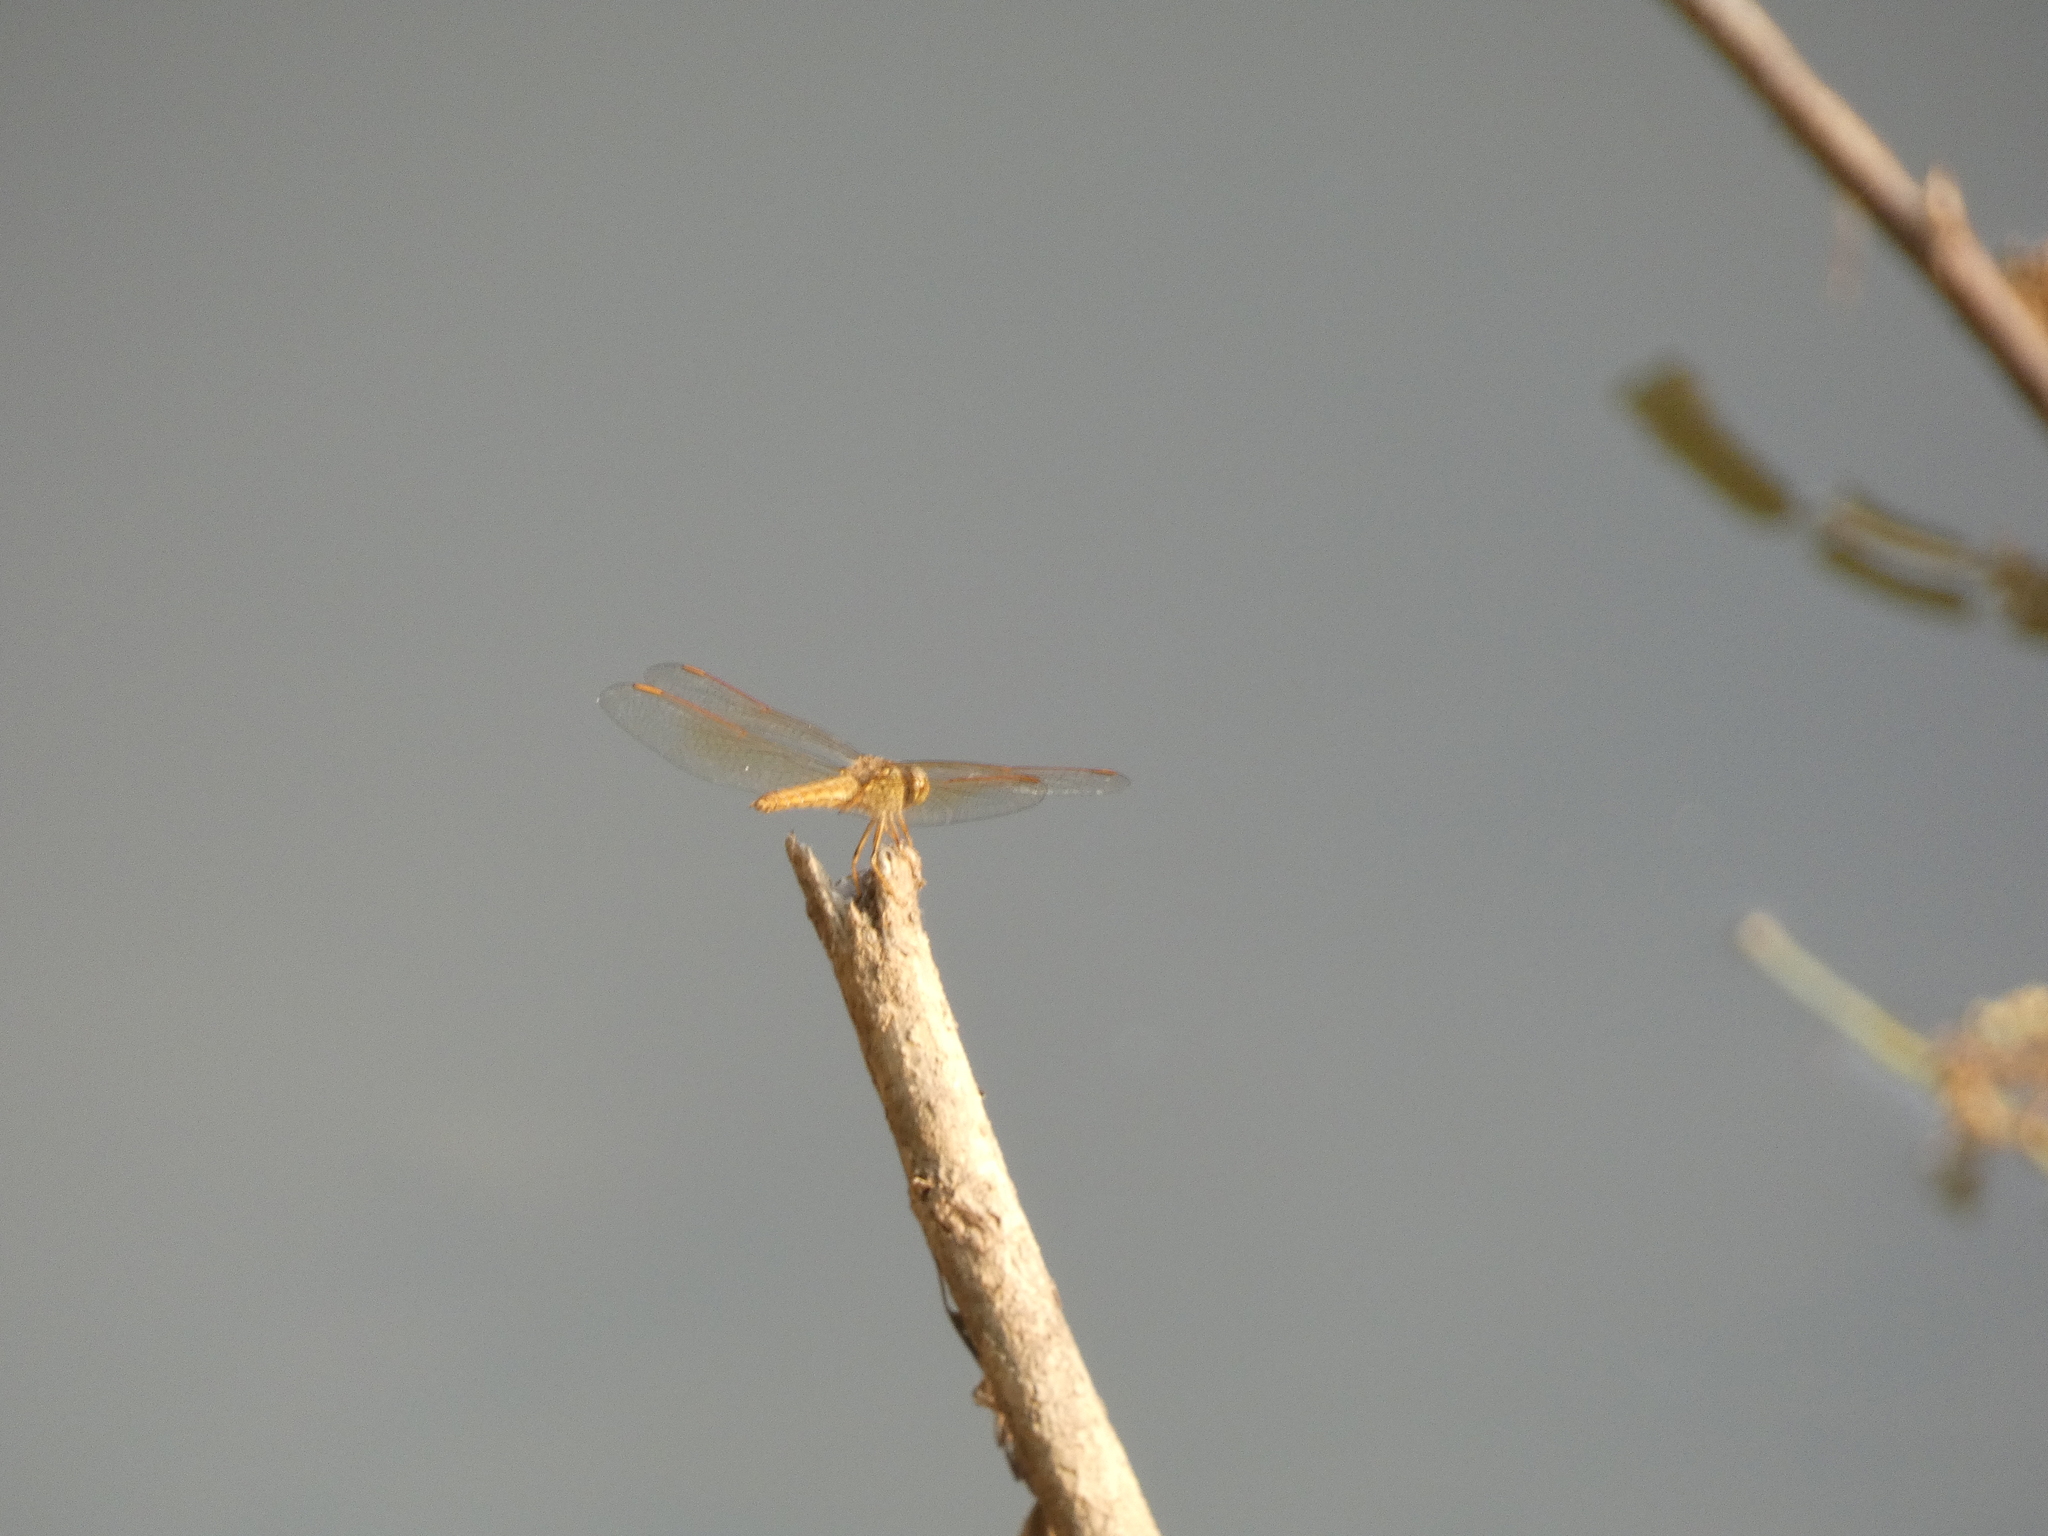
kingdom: Animalia
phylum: Arthropoda
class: Insecta
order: Odonata
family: Libellulidae
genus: Brachythemis
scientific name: Brachythemis contaminata
